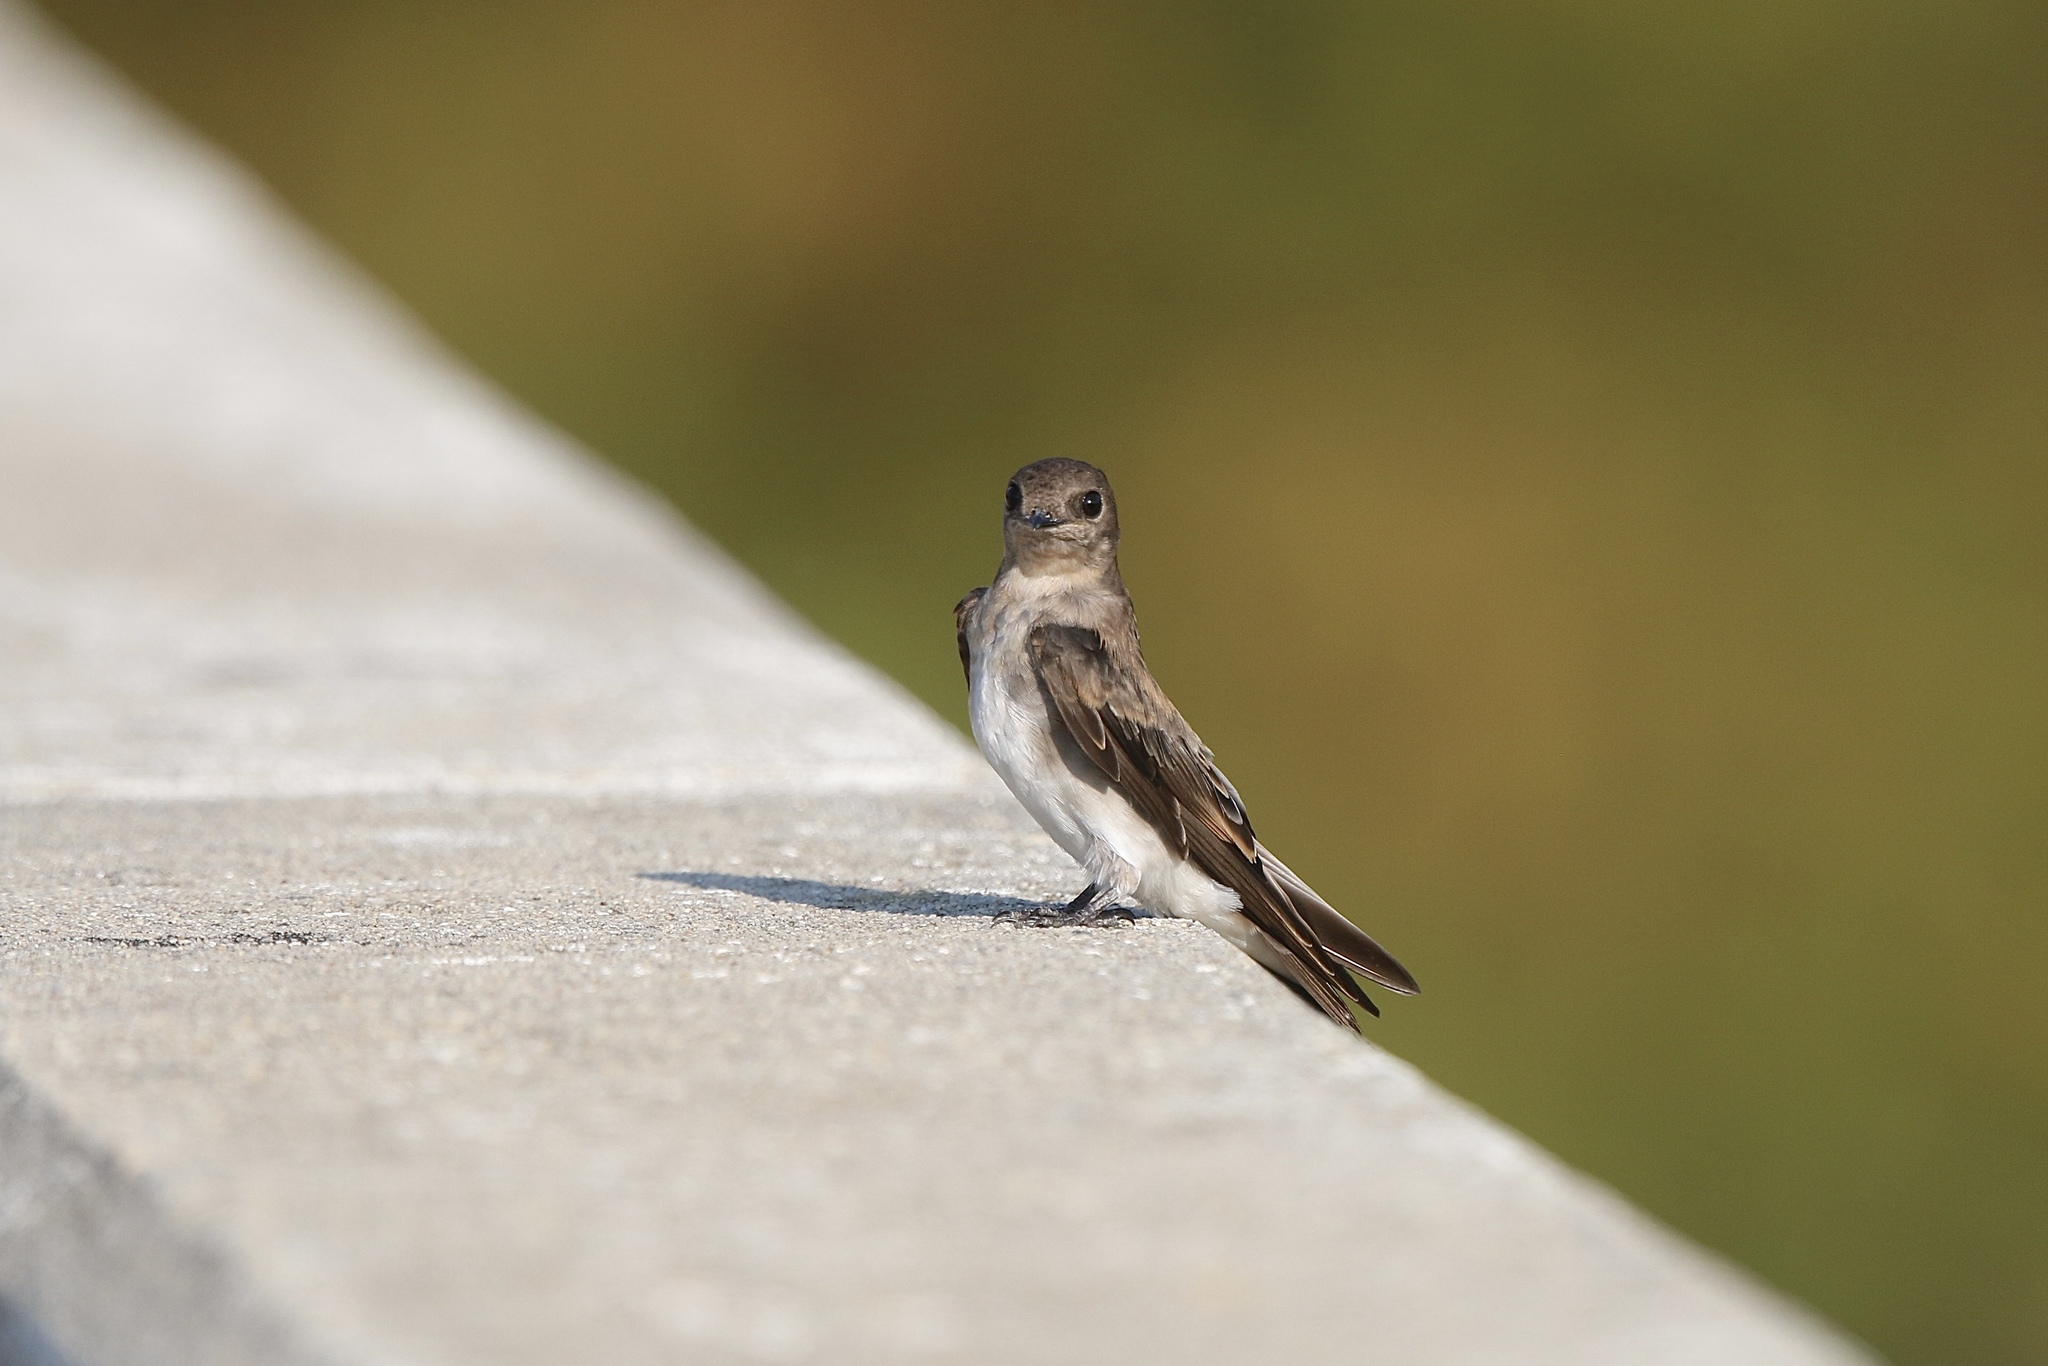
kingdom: Animalia
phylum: Chordata
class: Aves
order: Passeriformes
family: Hirundinidae
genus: Stelgidopteryx
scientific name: Stelgidopteryx serripennis
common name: Northern rough-winged swallow
